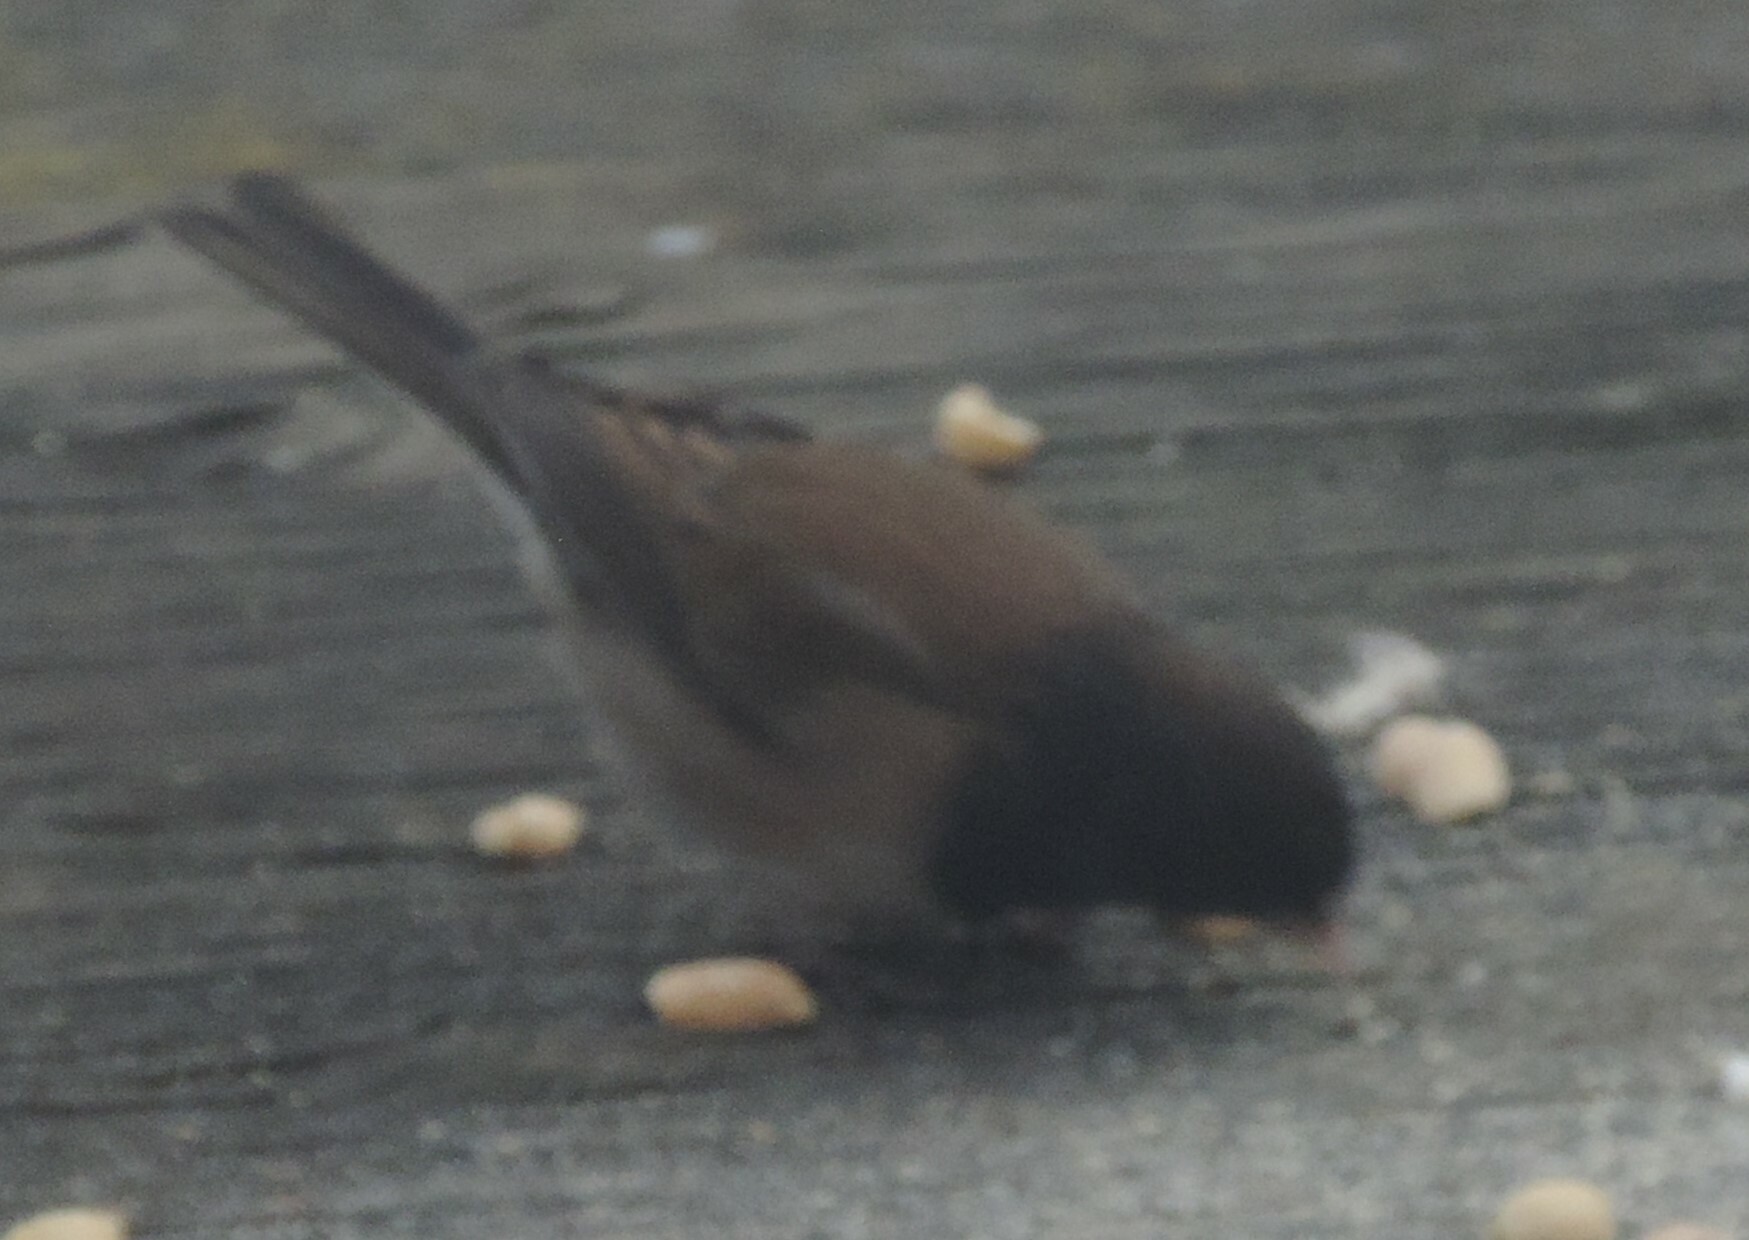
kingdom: Animalia
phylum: Chordata
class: Aves
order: Passeriformes
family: Passerellidae
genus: Junco
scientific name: Junco hyemalis
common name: Dark-eyed junco
